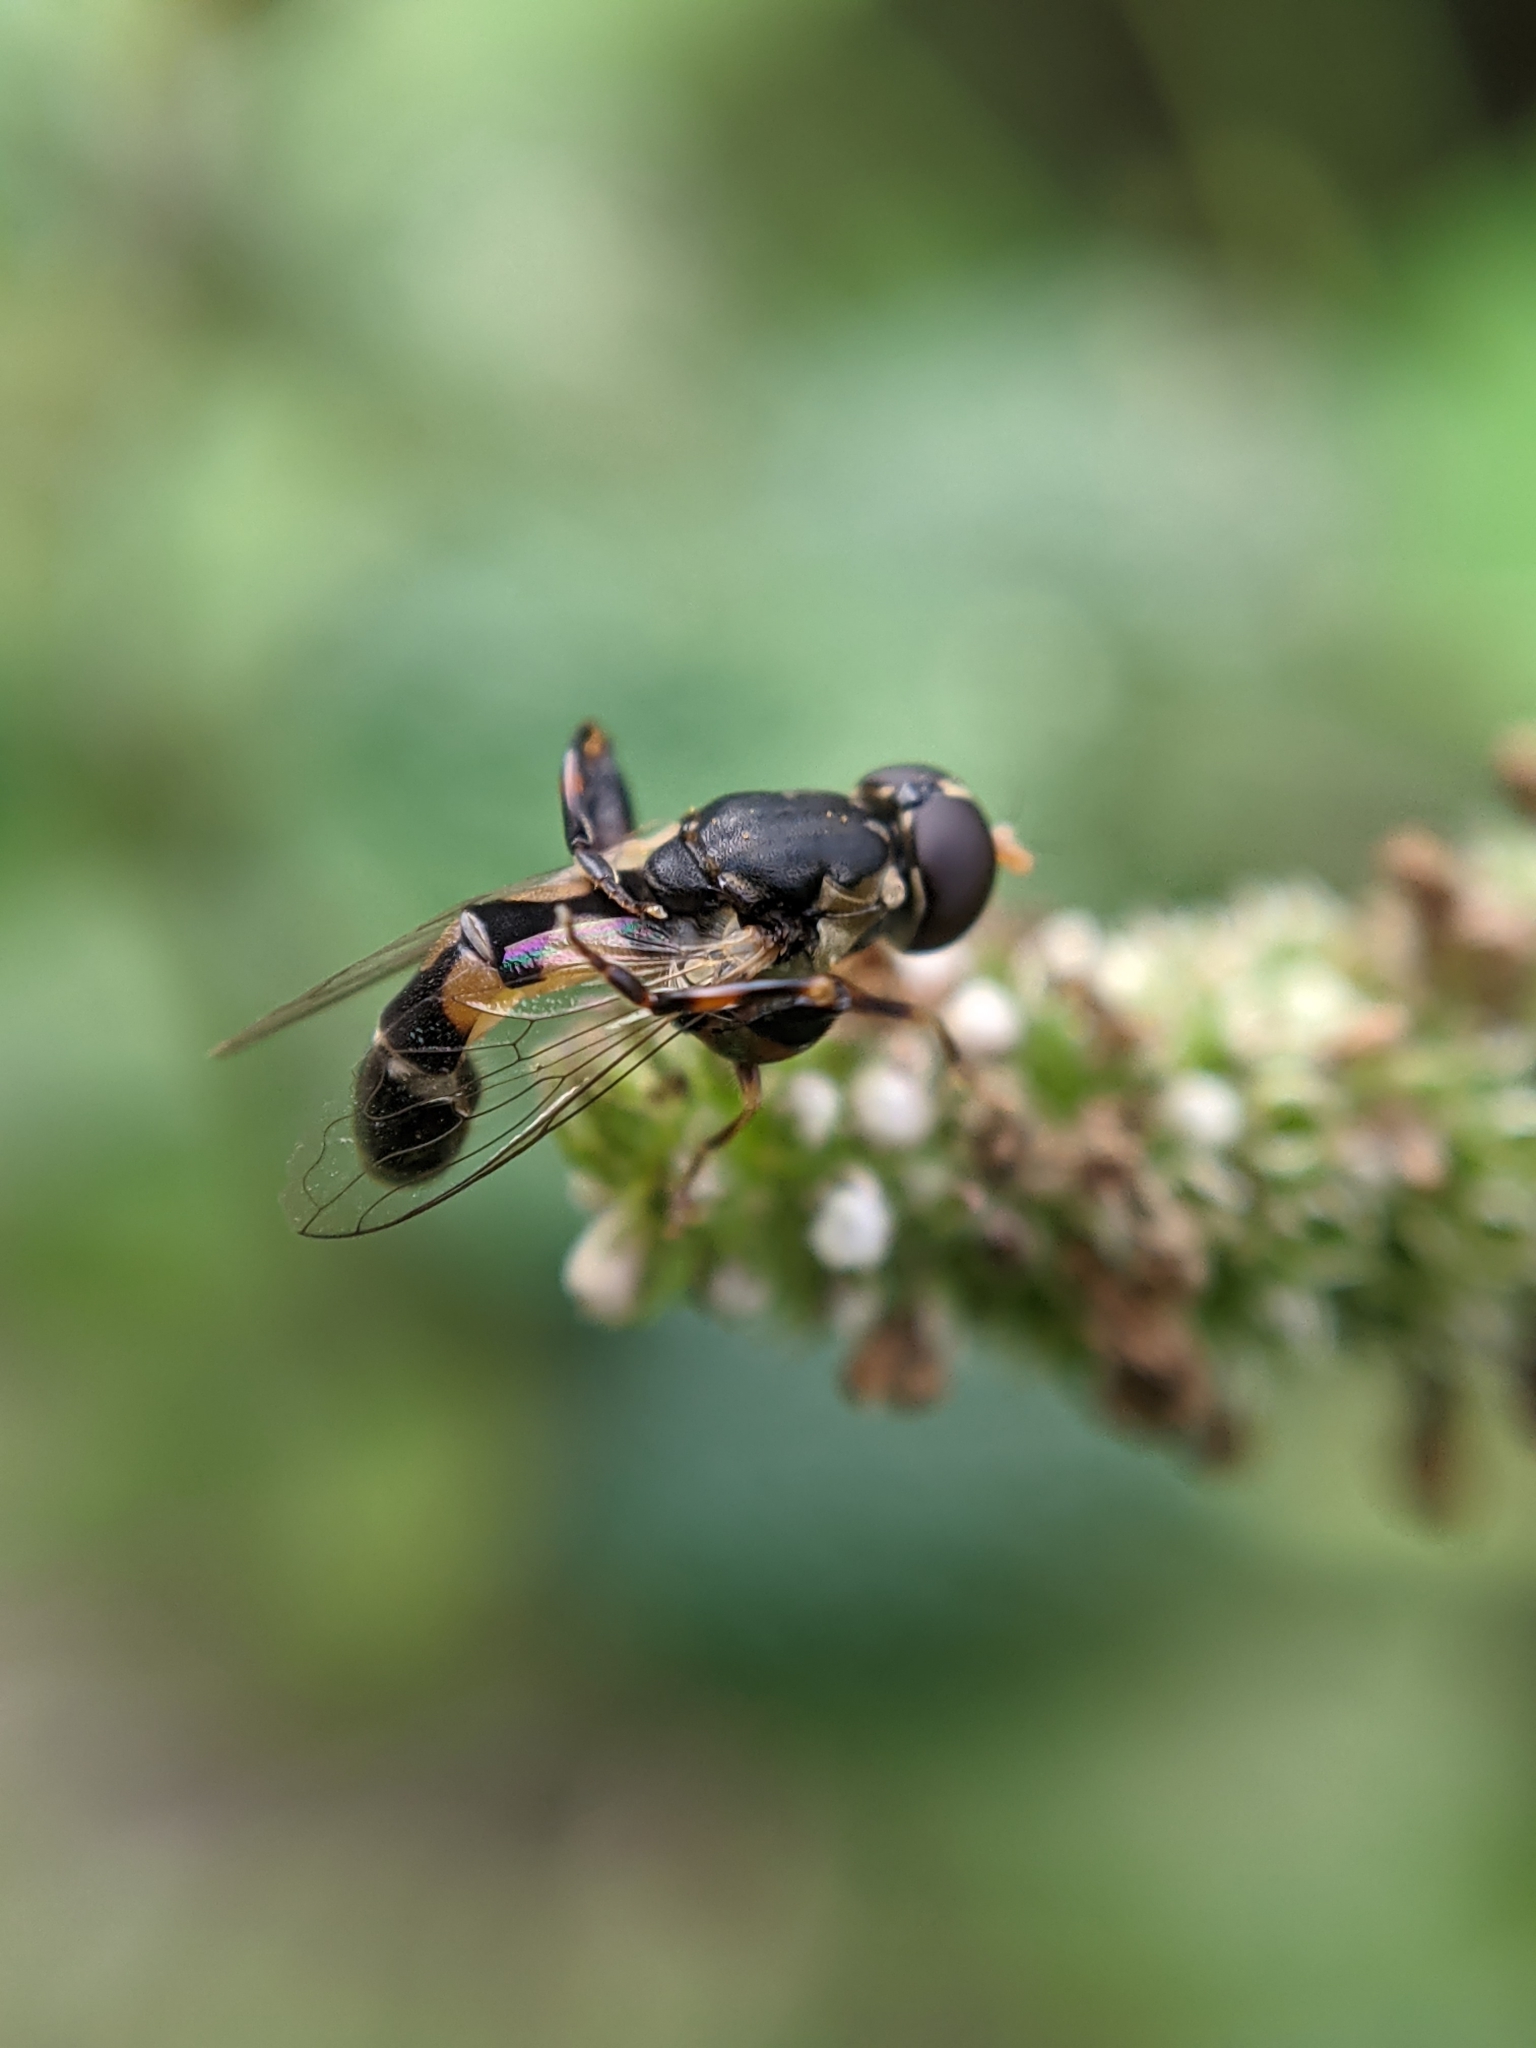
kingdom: Animalia
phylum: Arthropoda
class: Insecta
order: Diptera
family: Syrphidae
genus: Syritta
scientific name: Syritta pipiens
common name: Hover fly
